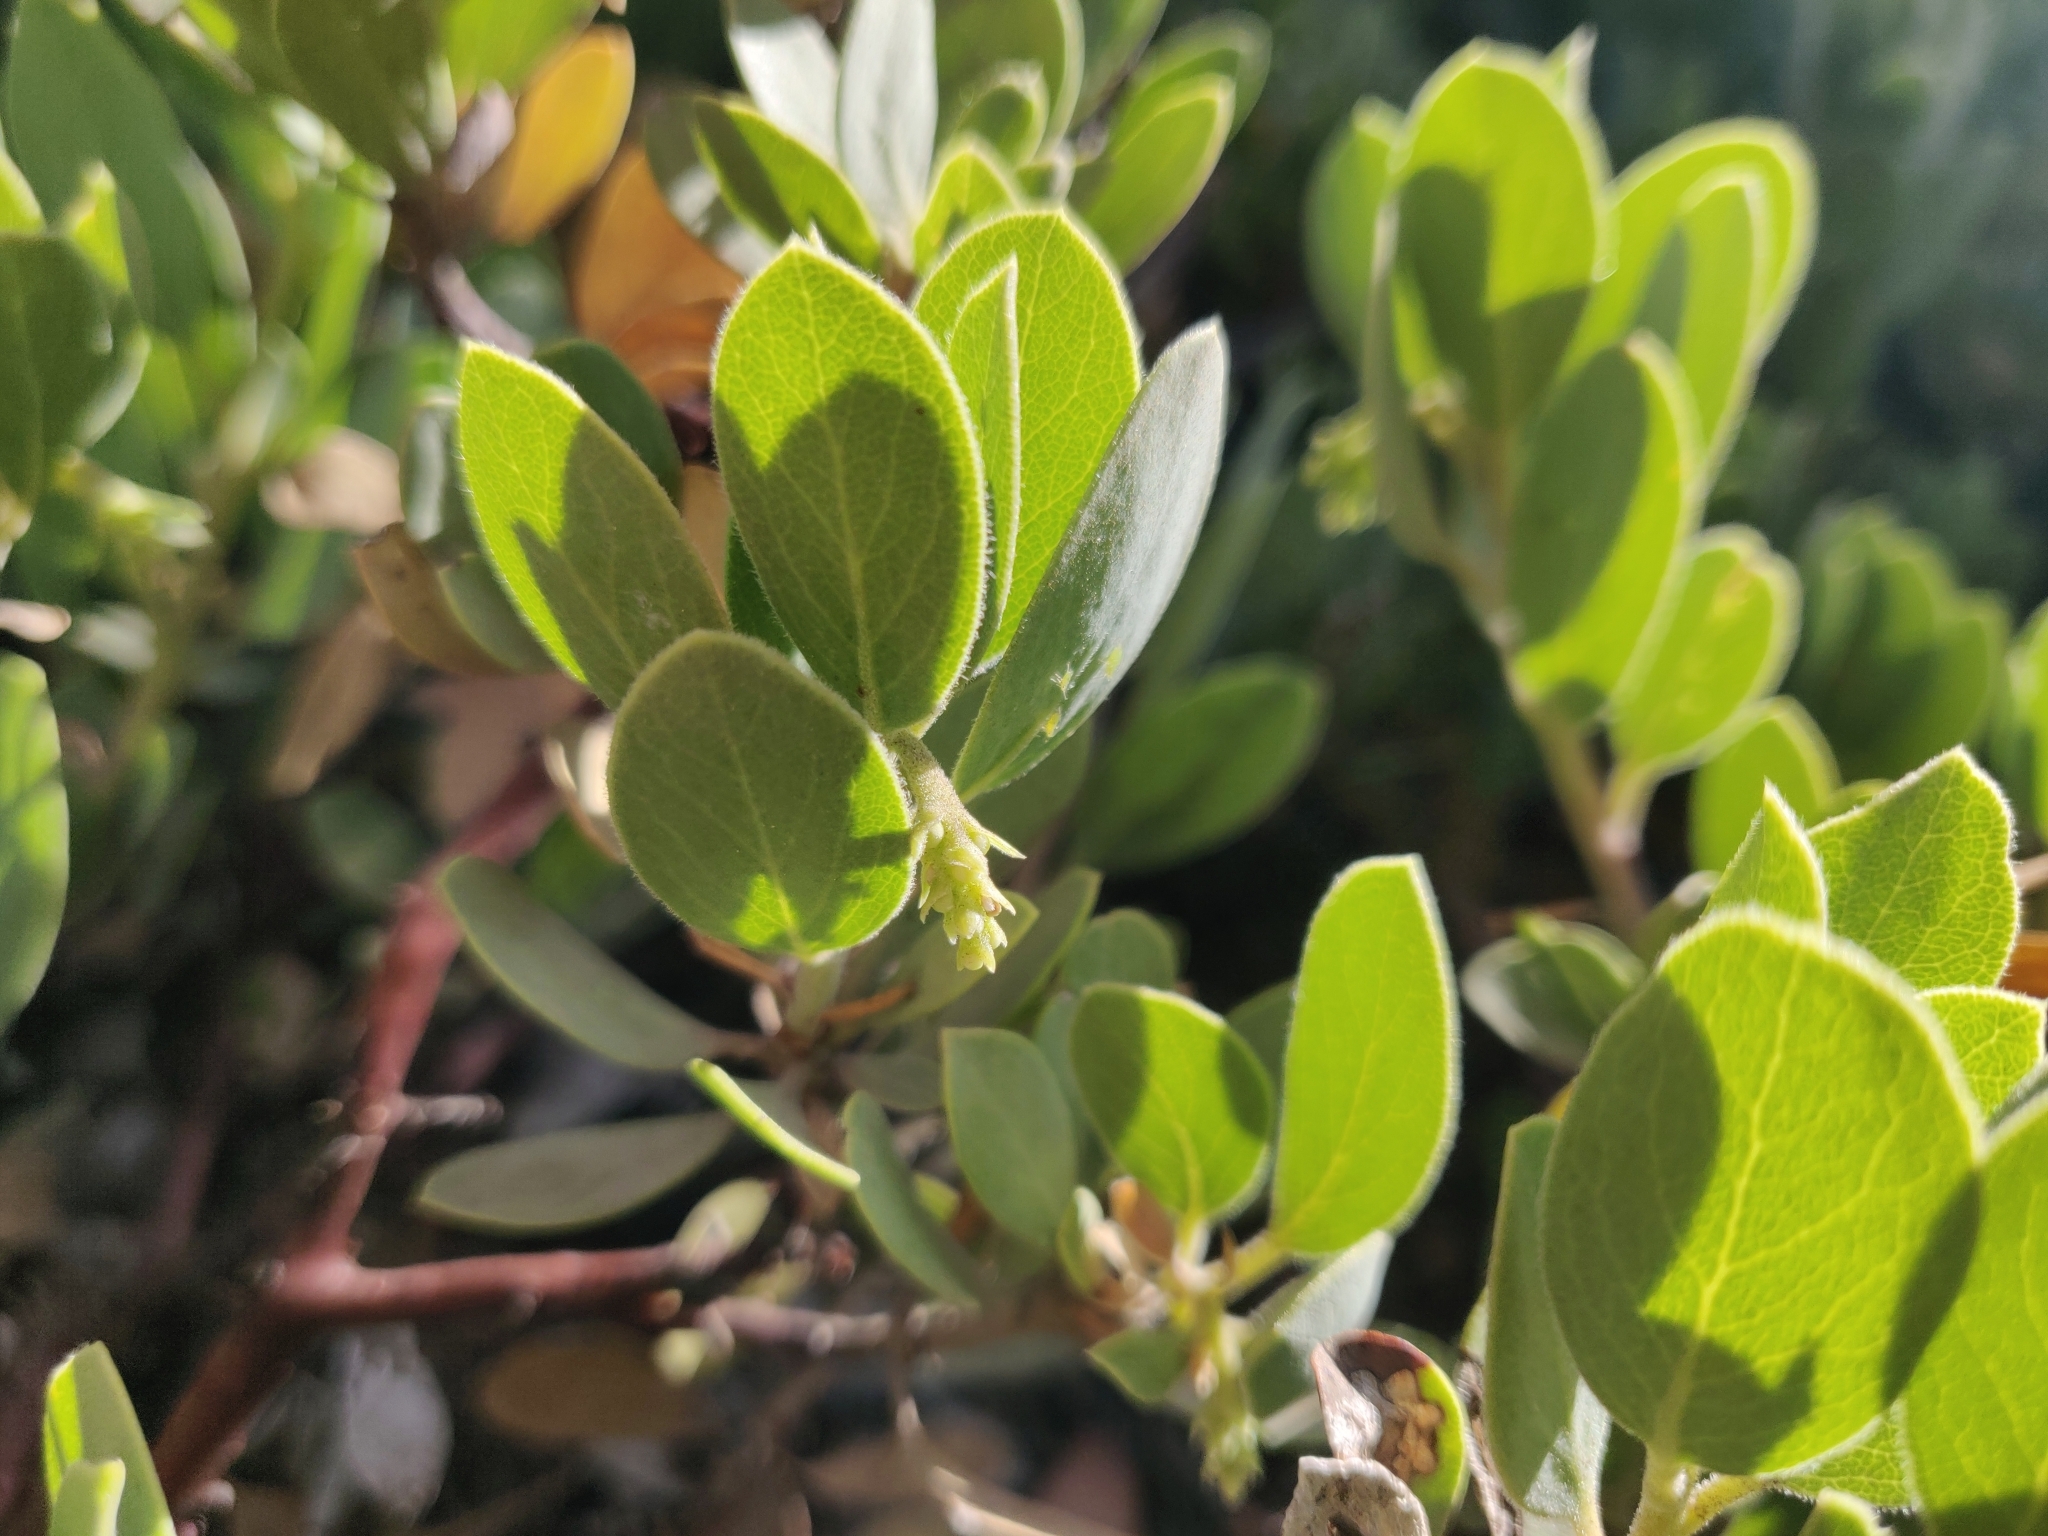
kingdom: Plantae
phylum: Tracheophyta
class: Magnoliopsida
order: Ericales
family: Ericaceae
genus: Arctostaphylos
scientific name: Arctostaphylos nevadensis
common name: Pinemat manzanita
